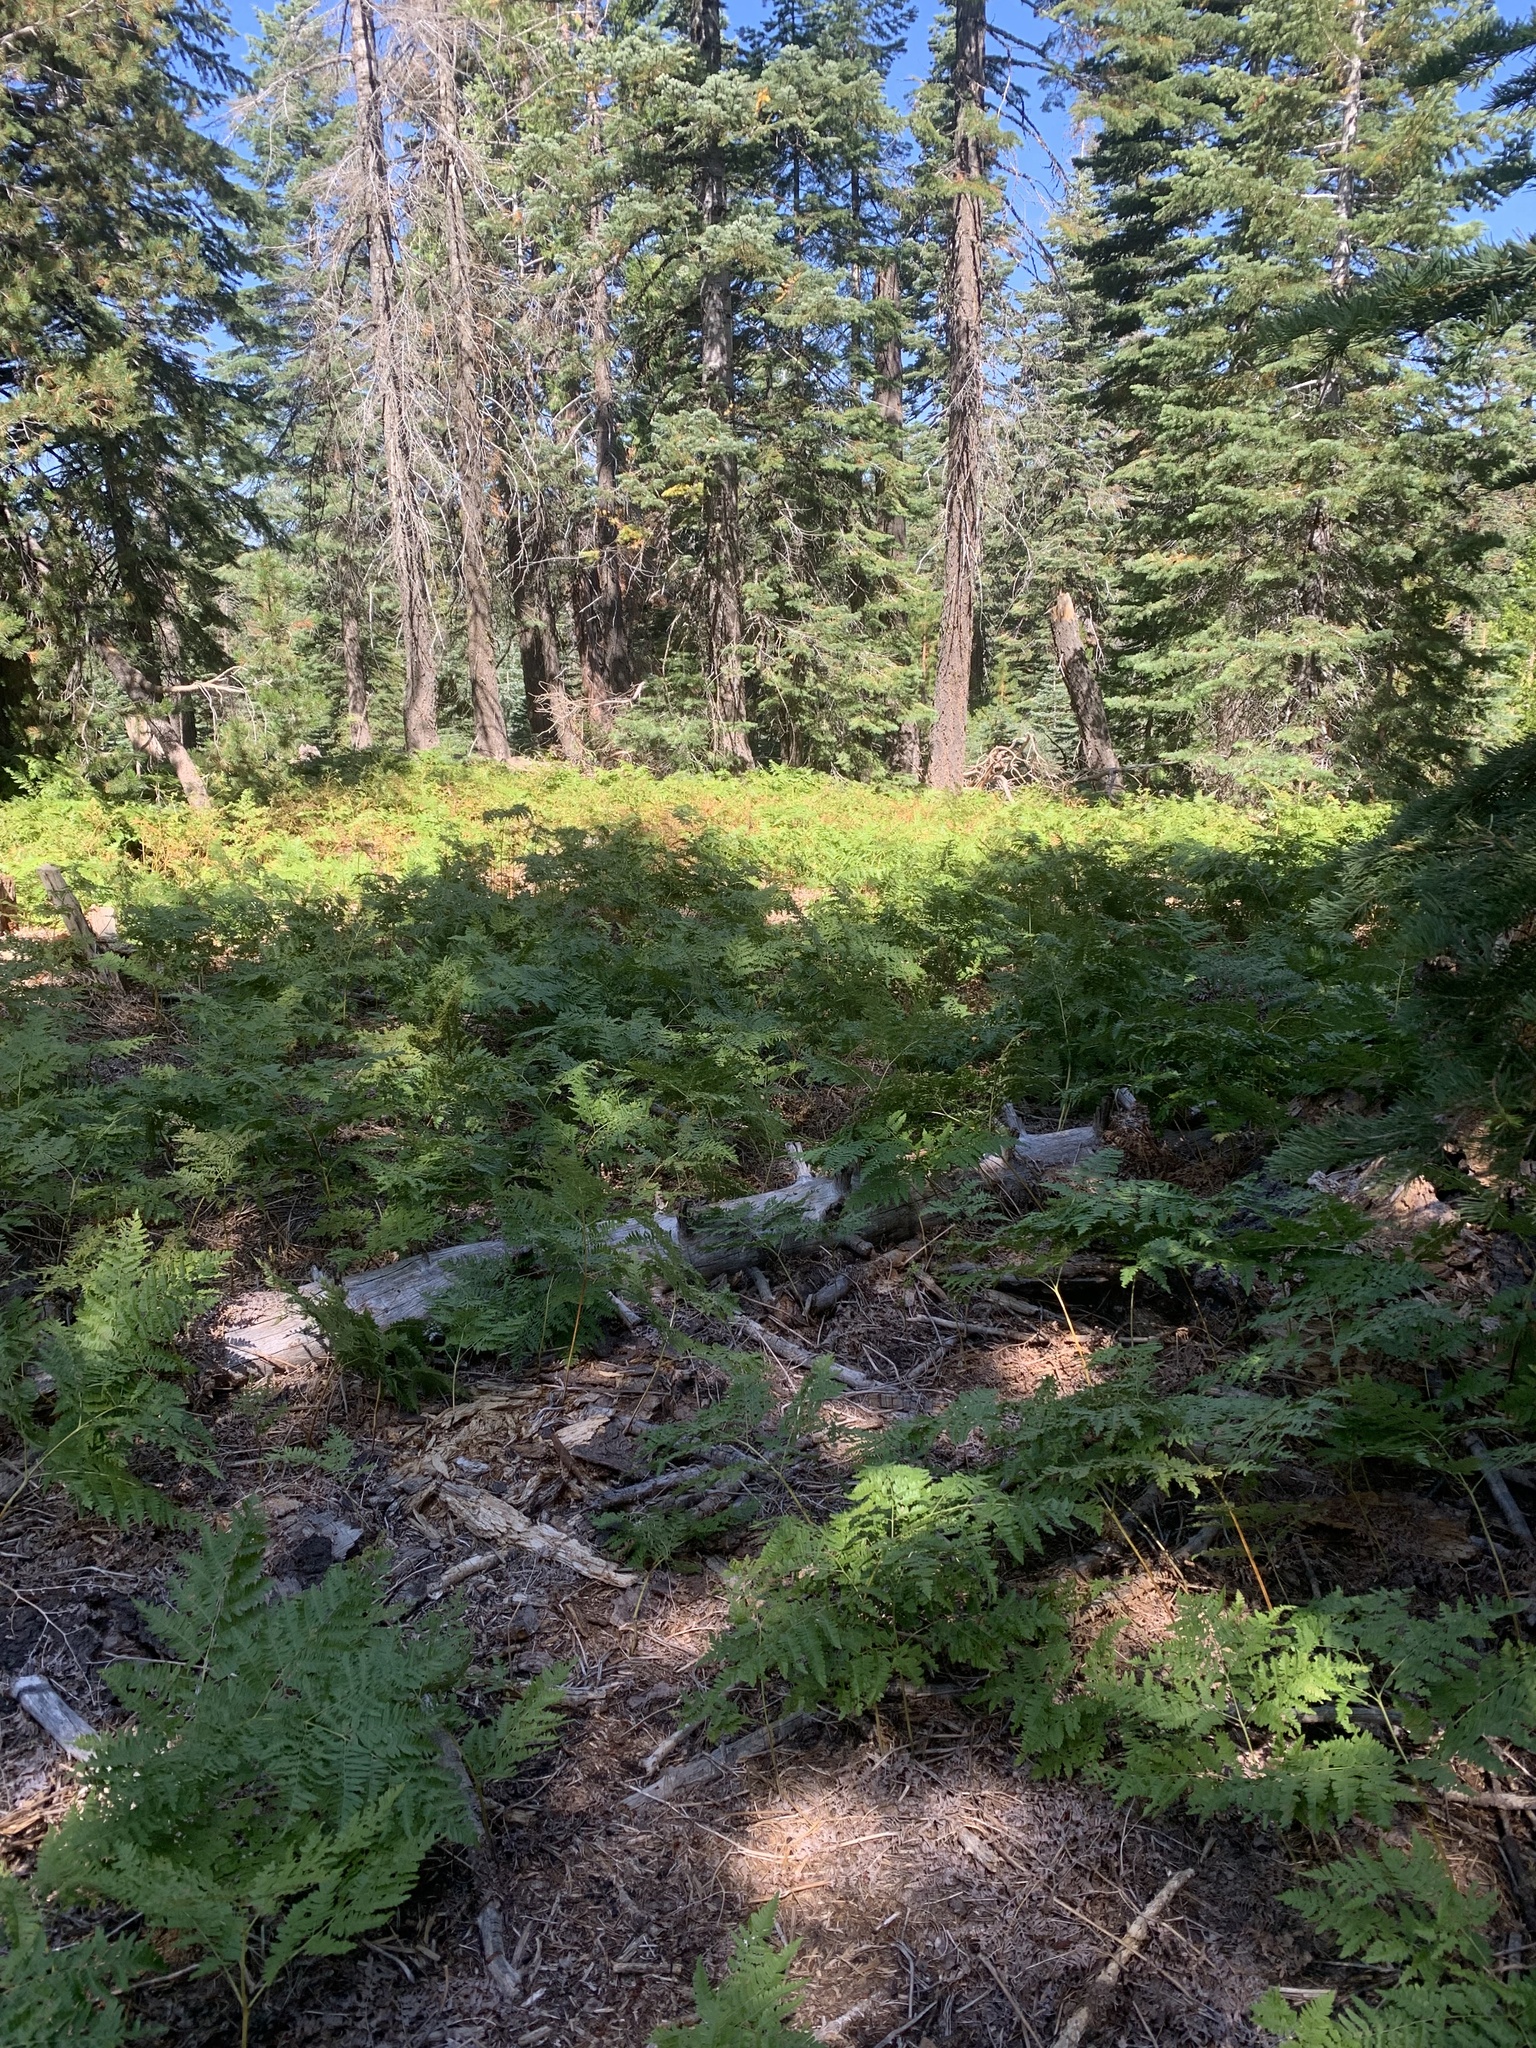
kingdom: Plantae
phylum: Tracheophyta
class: Polypodiopsida
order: Polypodiales
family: Dennstaedtiaceae
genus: Pteridium
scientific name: Pteridium aquilinum
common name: Bracken
